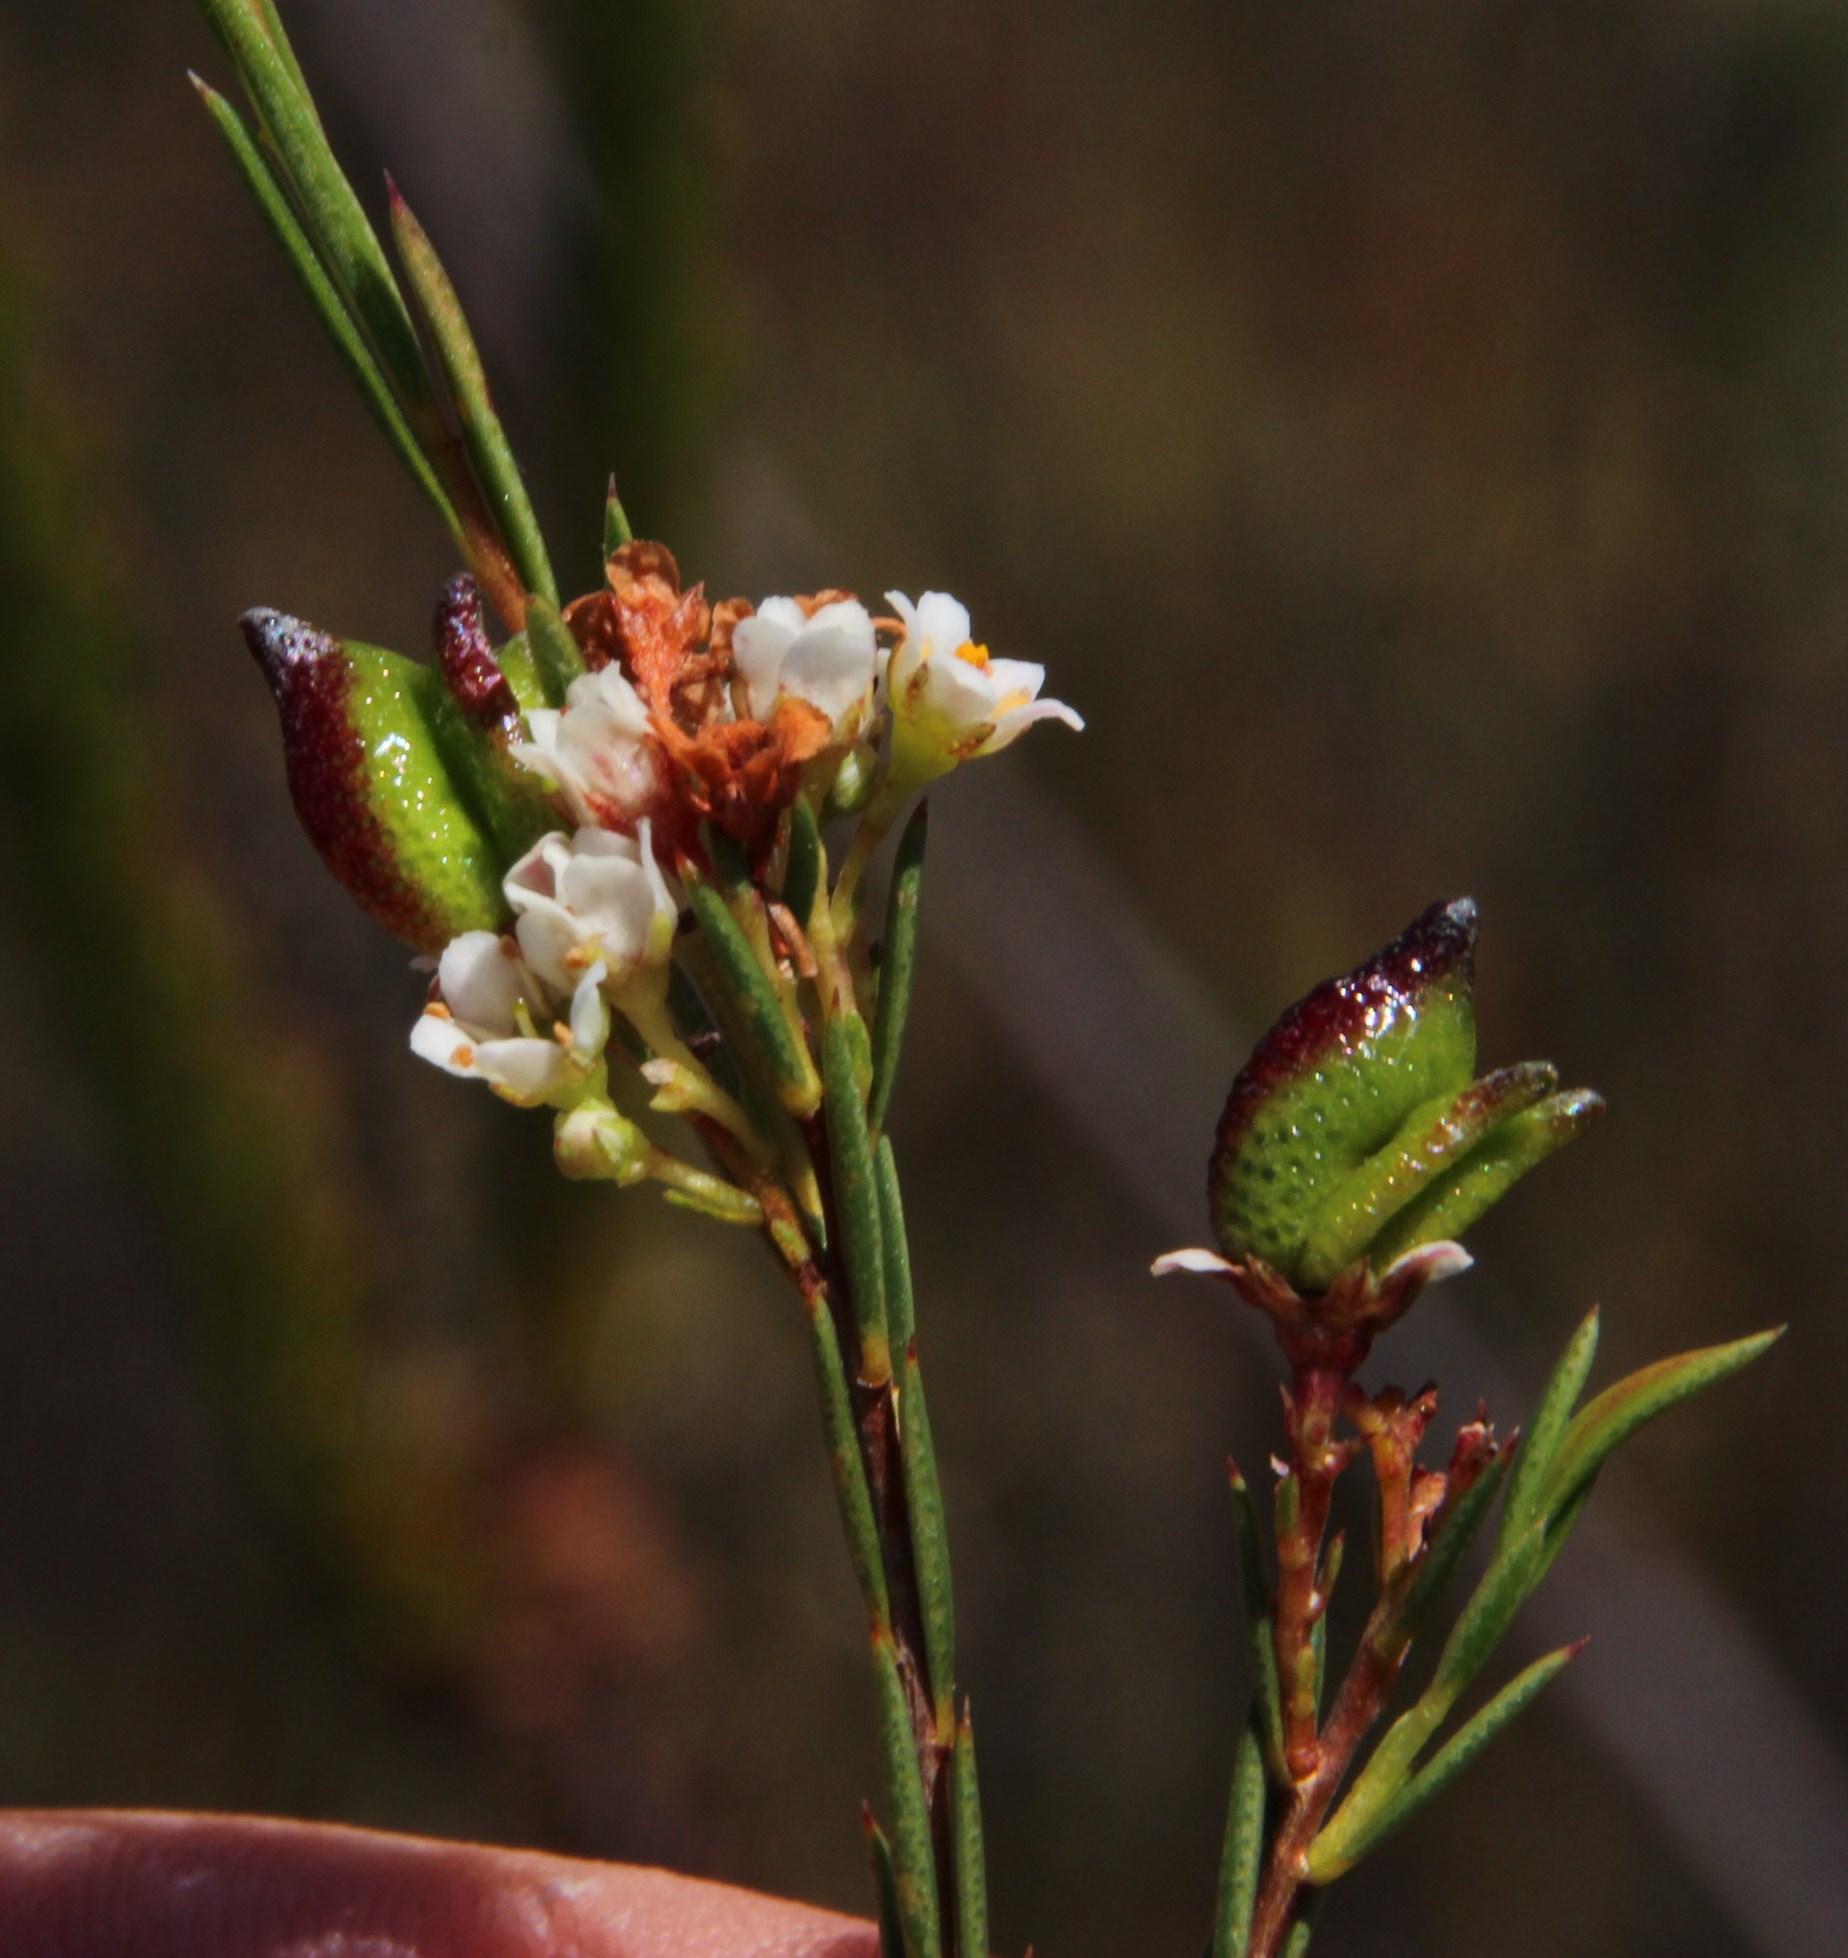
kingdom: Plantae
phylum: Tracheophyta
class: Magnoliopsida
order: Sapindales
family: Rutaceae
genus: Diosma
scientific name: Diosma hirsuta
